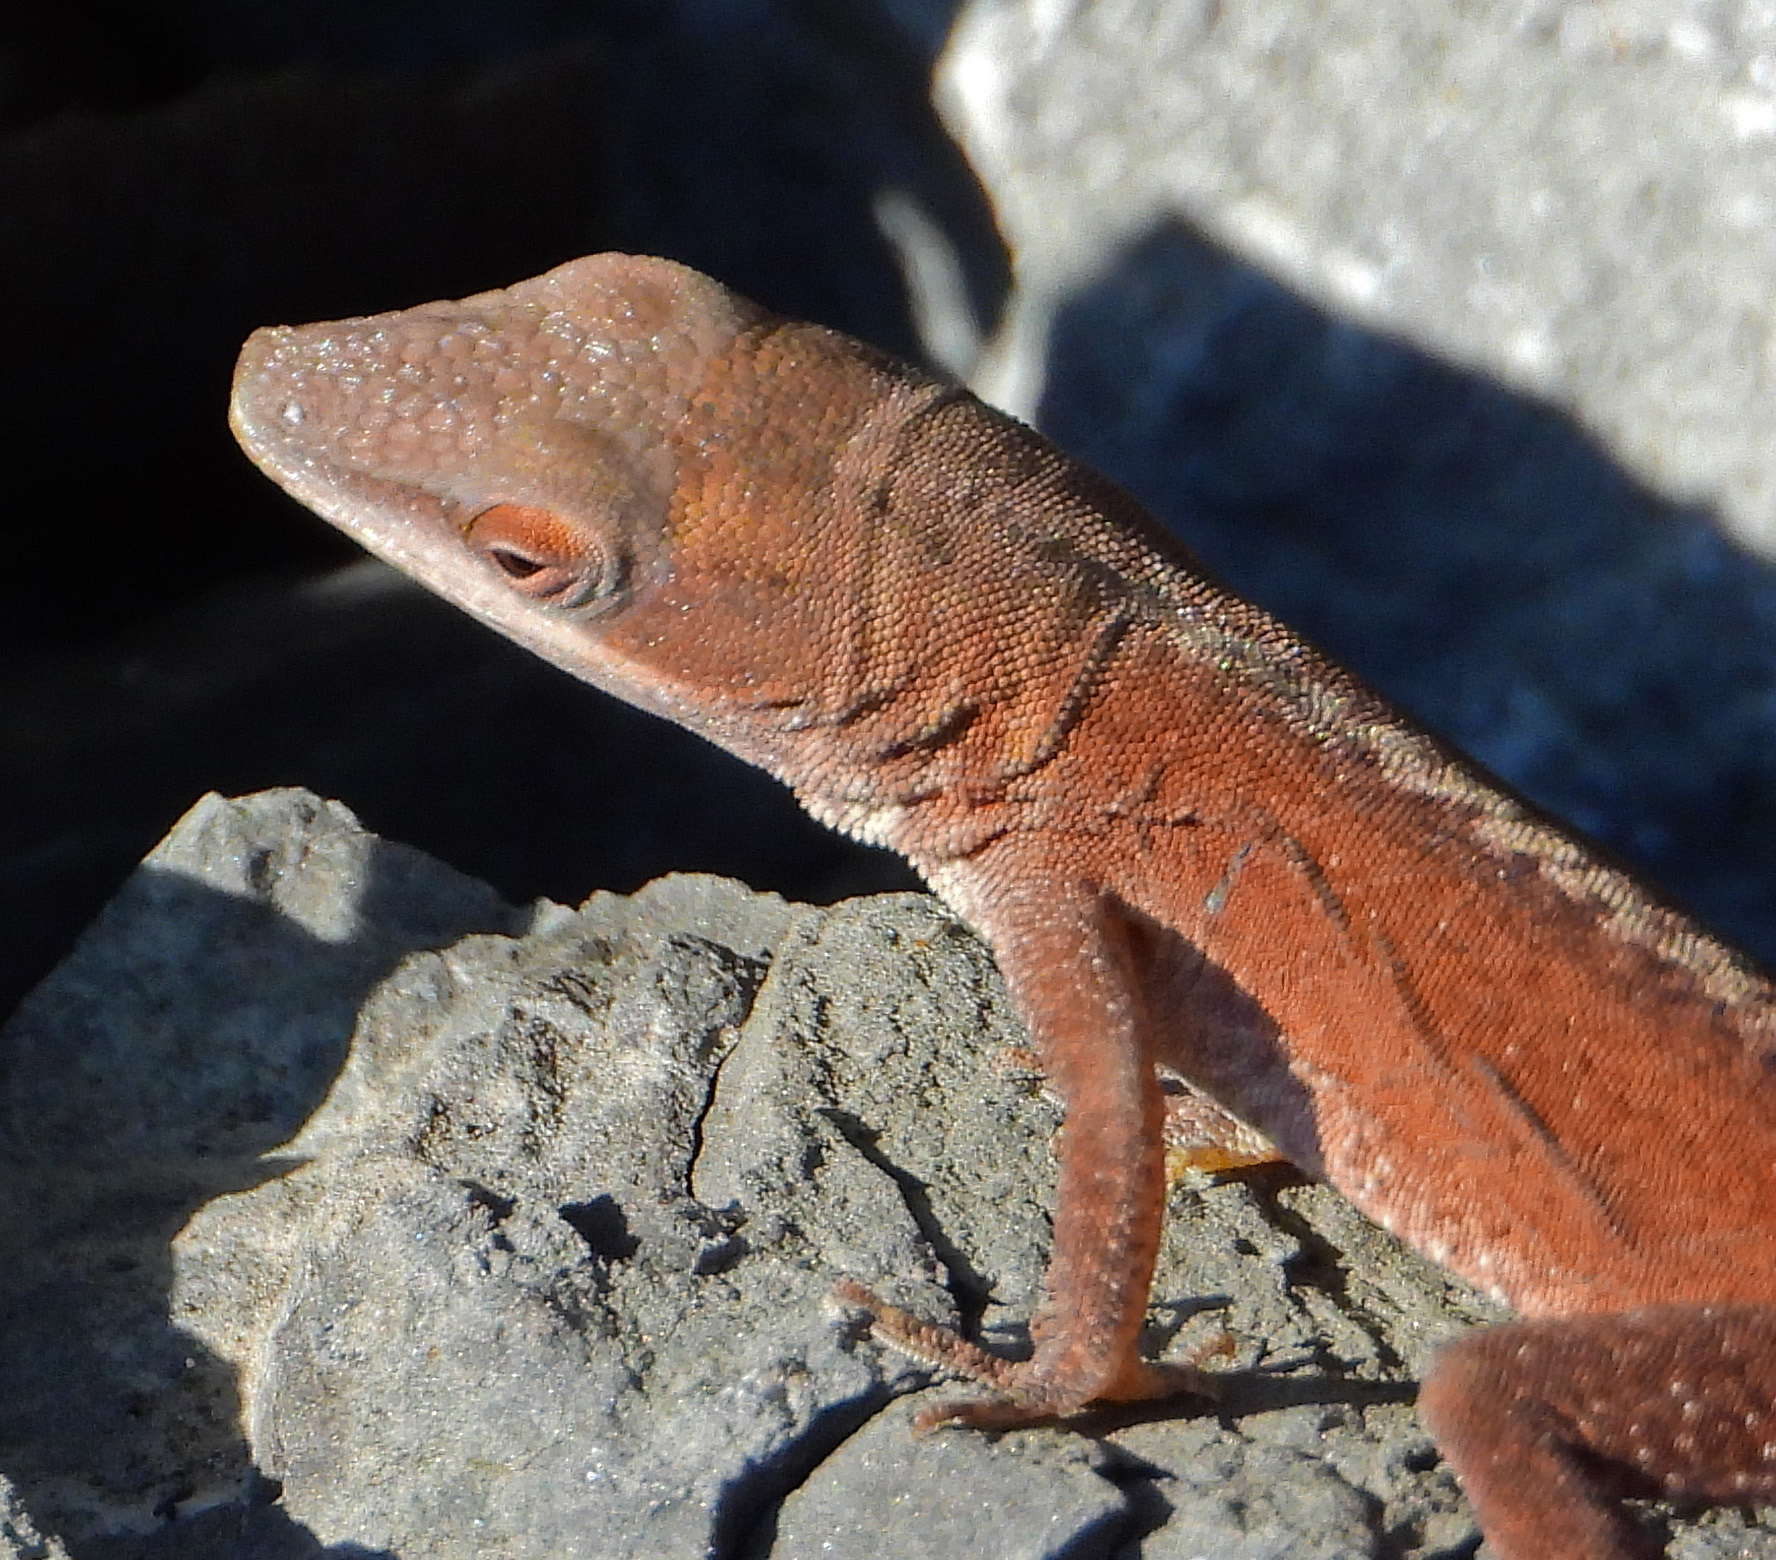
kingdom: Animalia
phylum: Chordata
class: Squamata
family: Dactyloidae
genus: Anolis
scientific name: Anolis carolinensis
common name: Green anole
